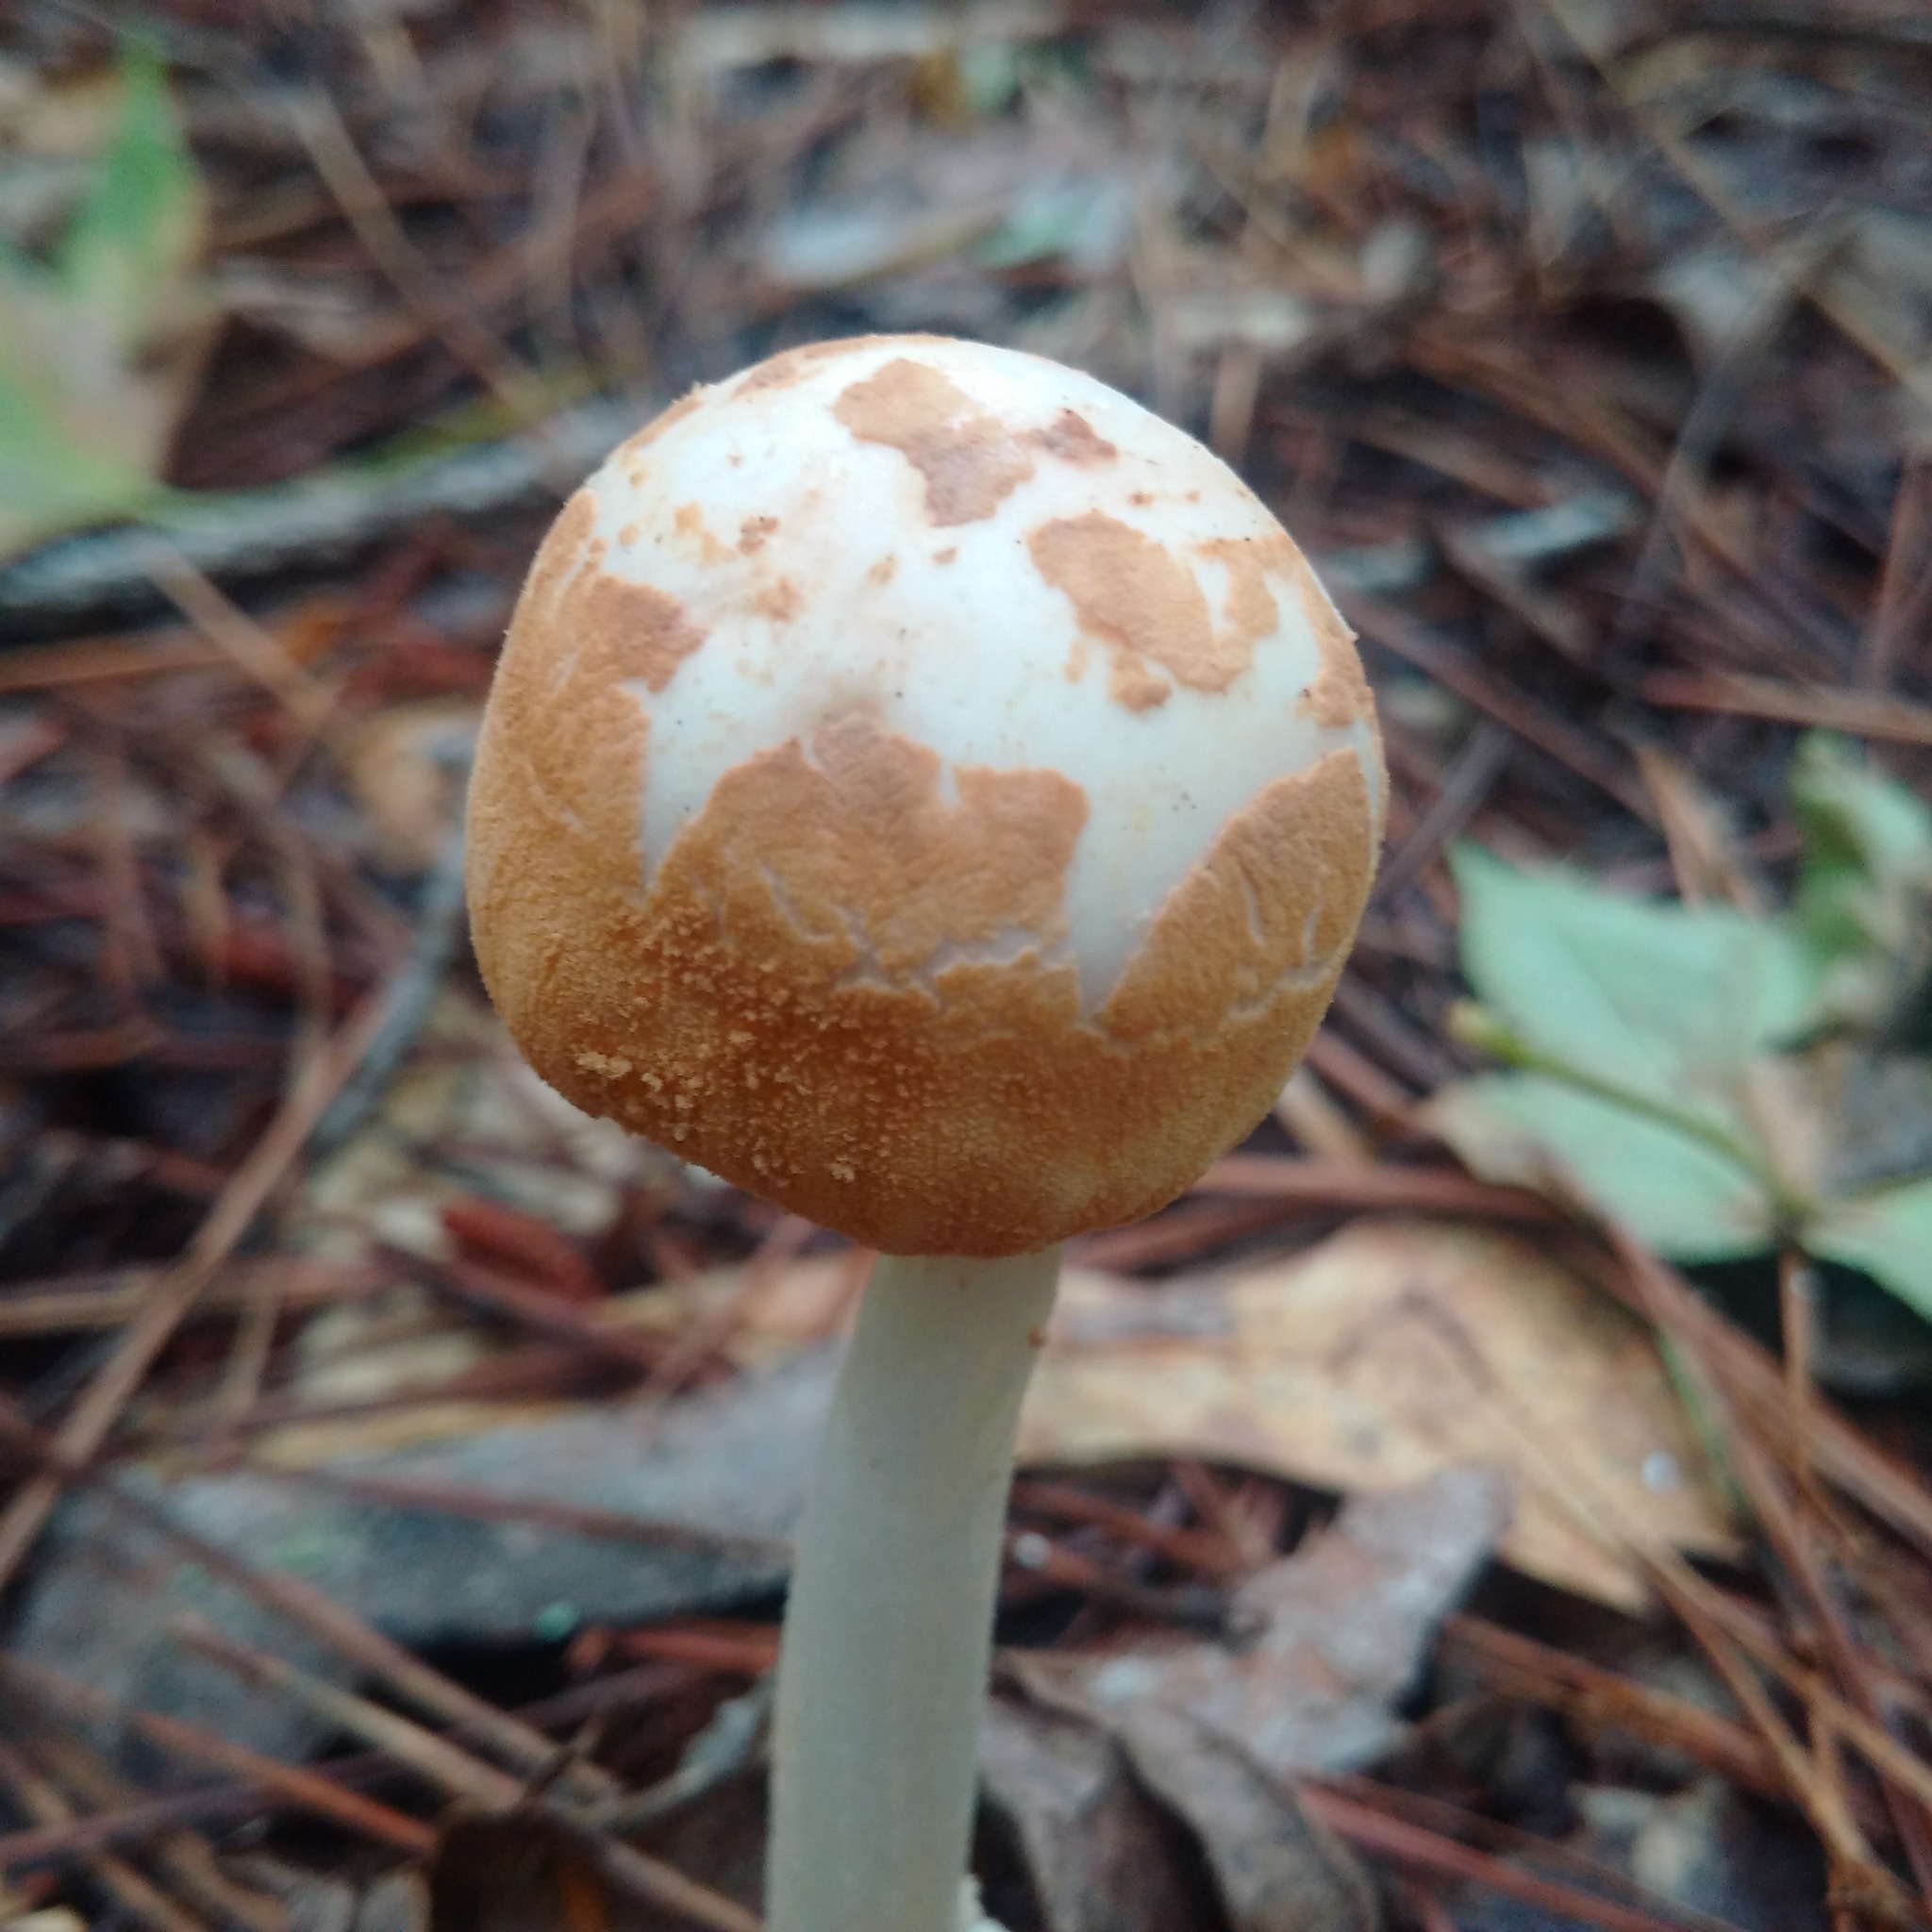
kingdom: Fungi
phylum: Basidiomycota
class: Agaricomycetes
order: Agaricales
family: Amanitaceae
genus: Amanita
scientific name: Amanita roseotincta
